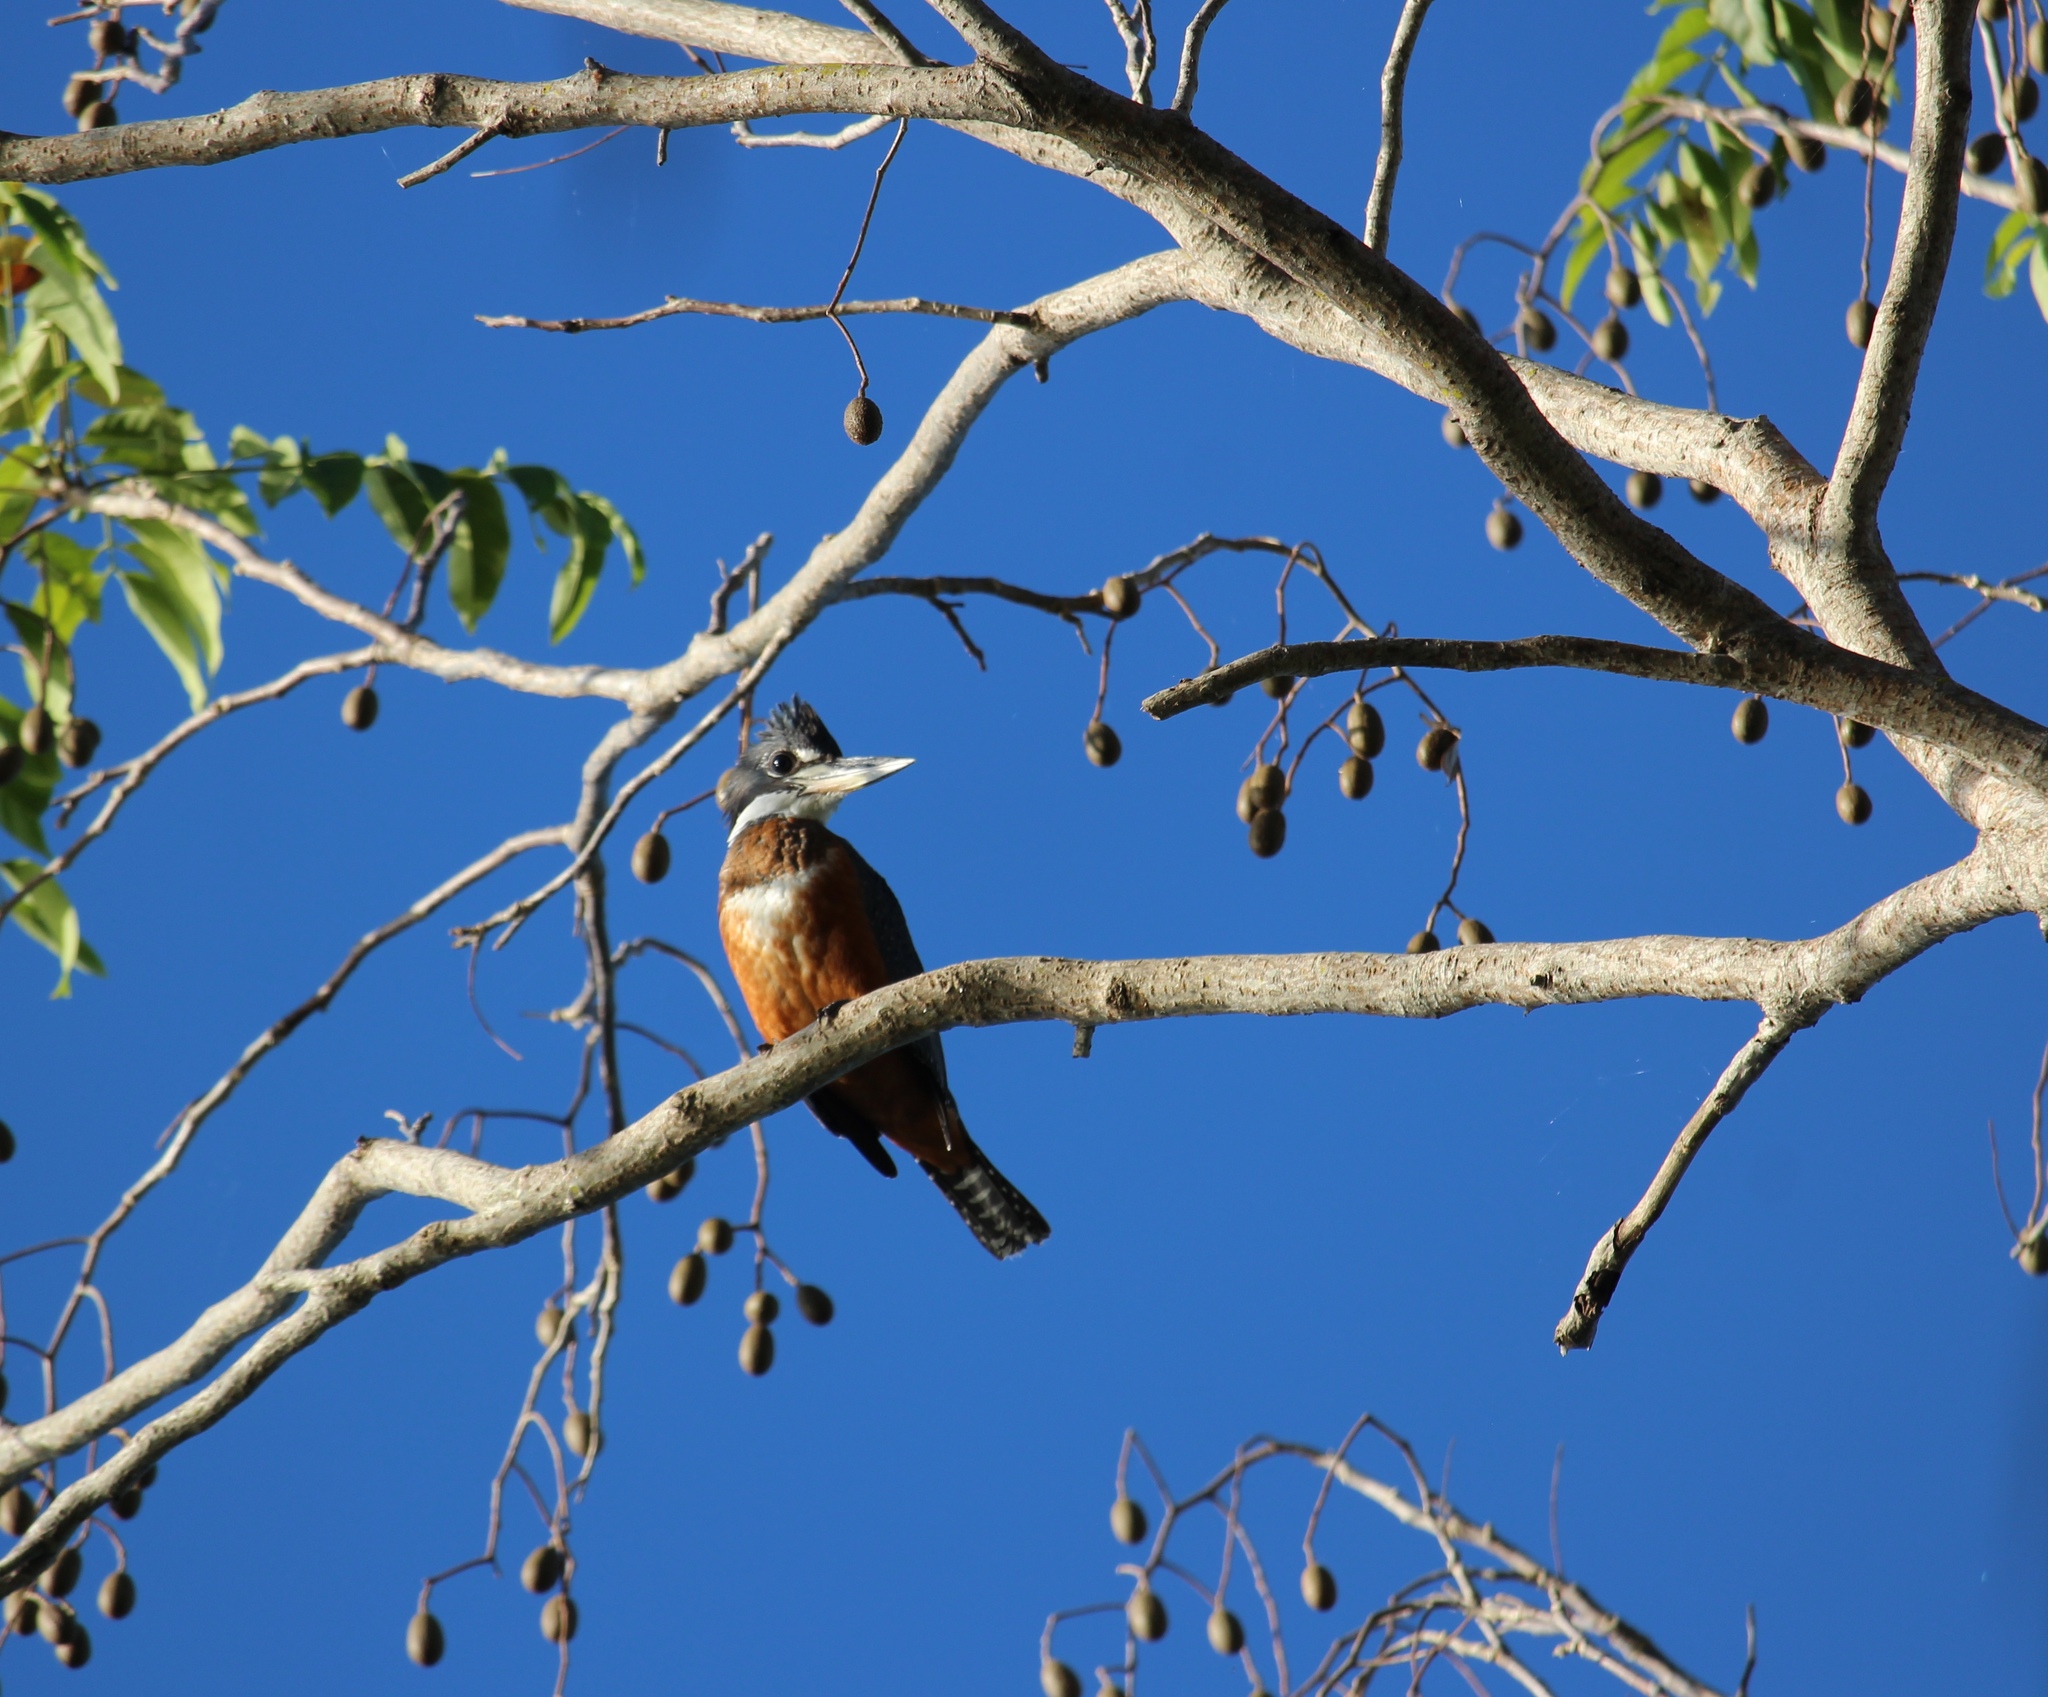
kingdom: Animalia
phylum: Chordata
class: Aves
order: Coraciiformes
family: Alcedinidae
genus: Megaceryle
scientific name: Megaceryle torquata
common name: Ringed kingfisher
